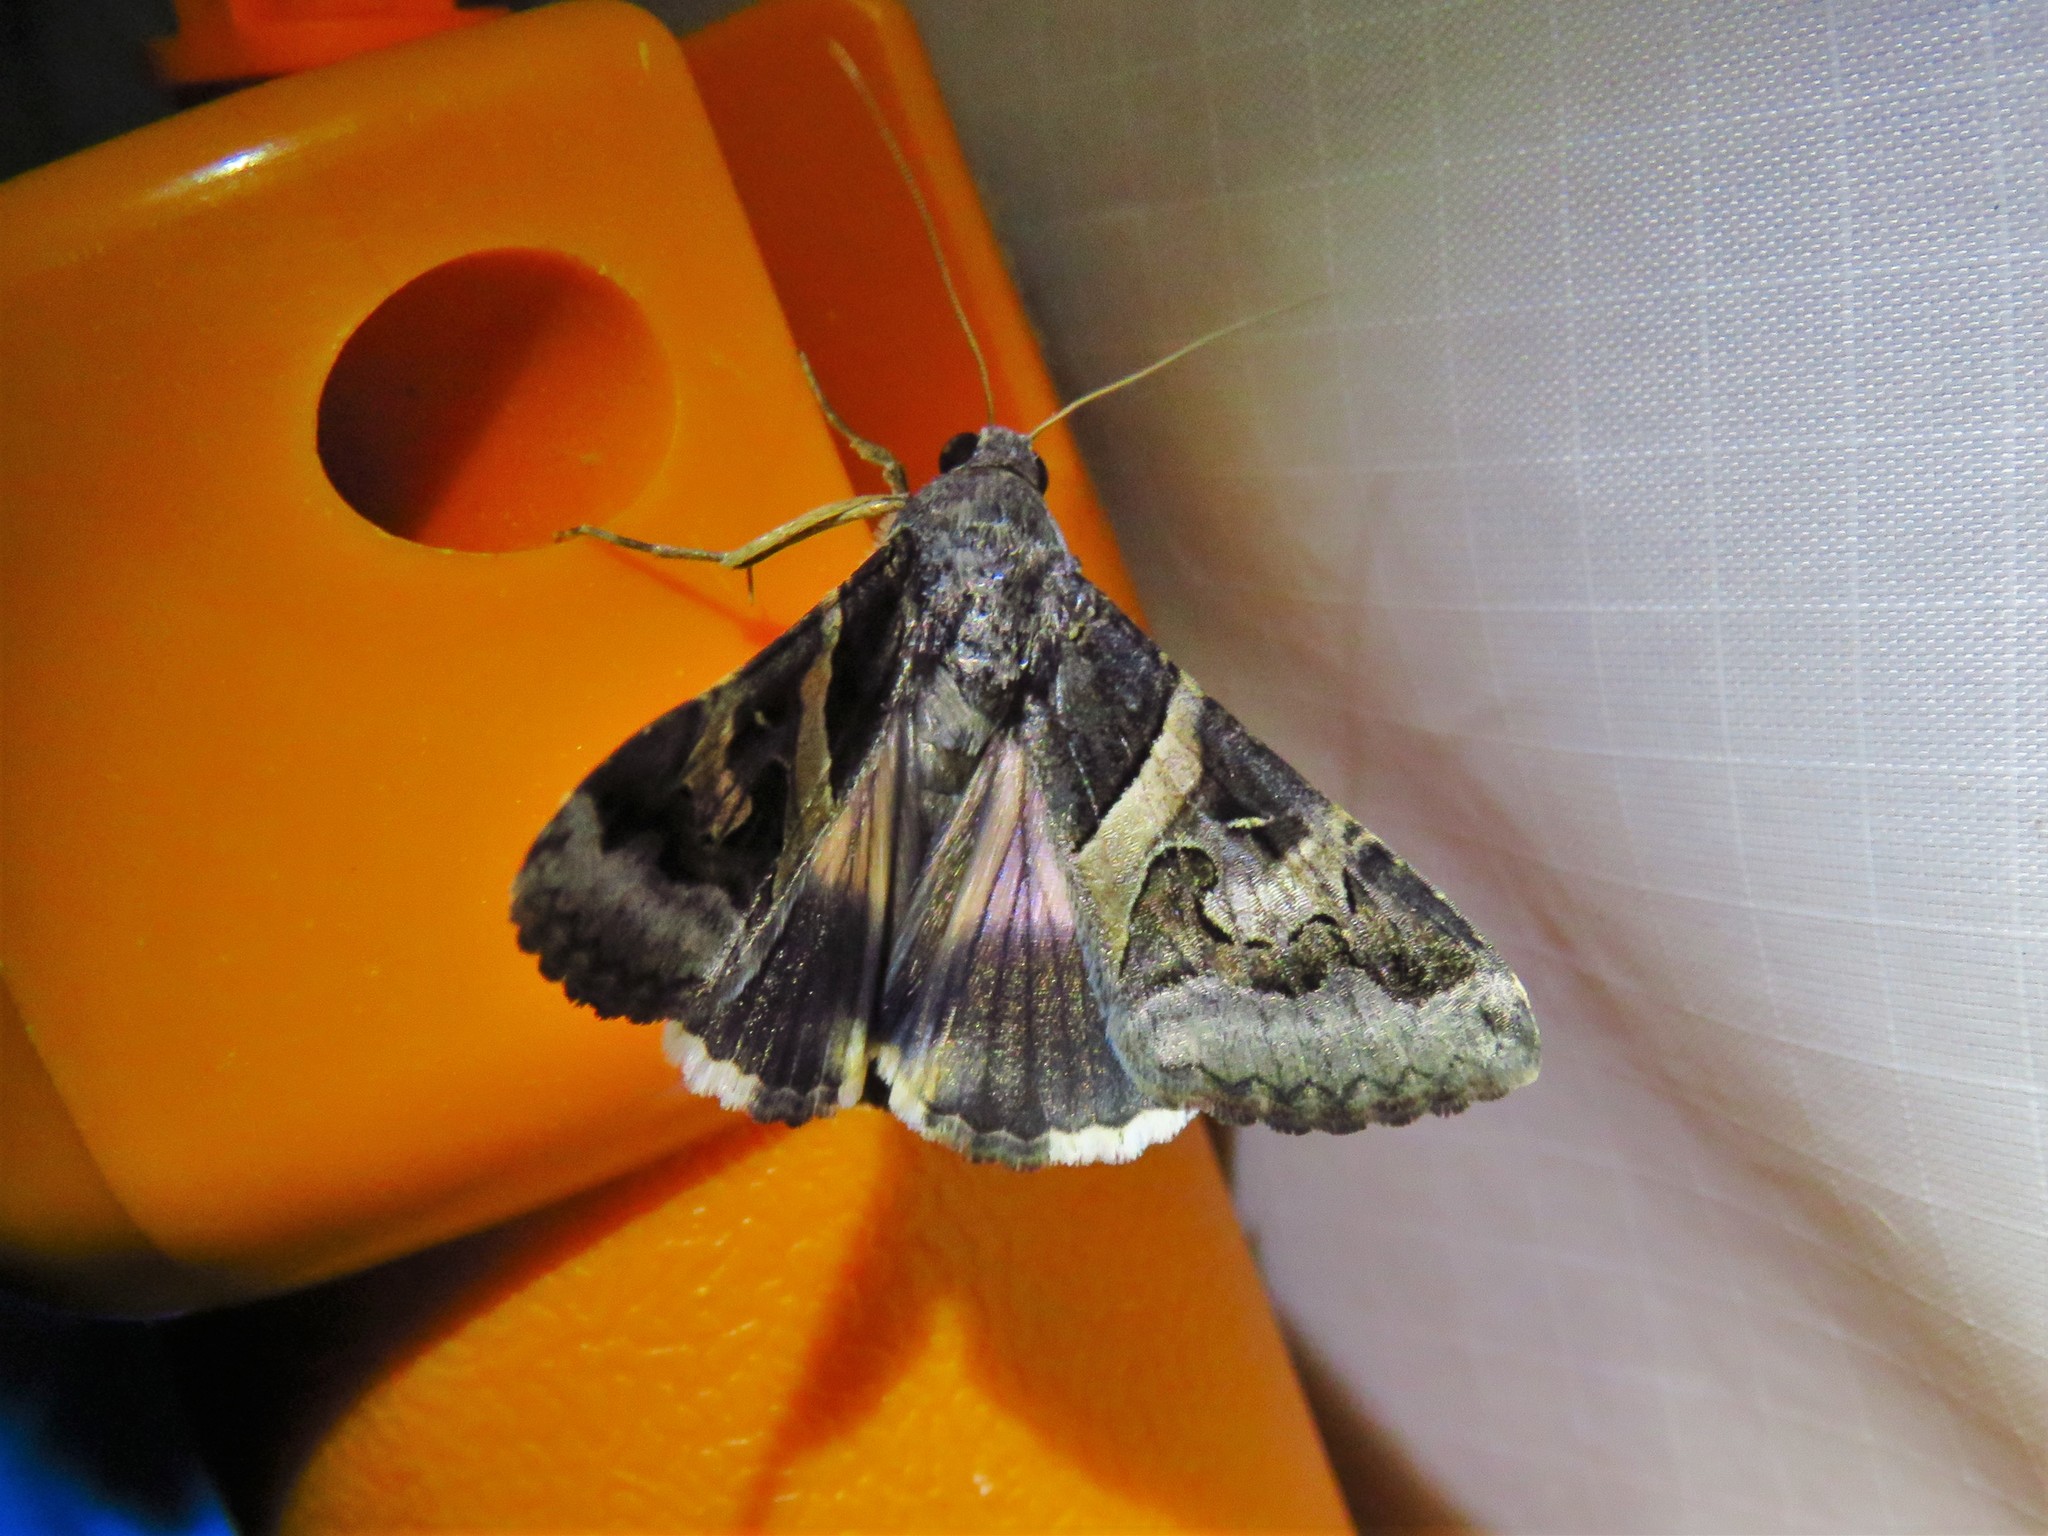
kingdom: Animalia
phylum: Arthropoda
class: Insecta
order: Lepidoptera
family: Erebidae
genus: Melipotis
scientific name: Melipotis indomita
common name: Moth
